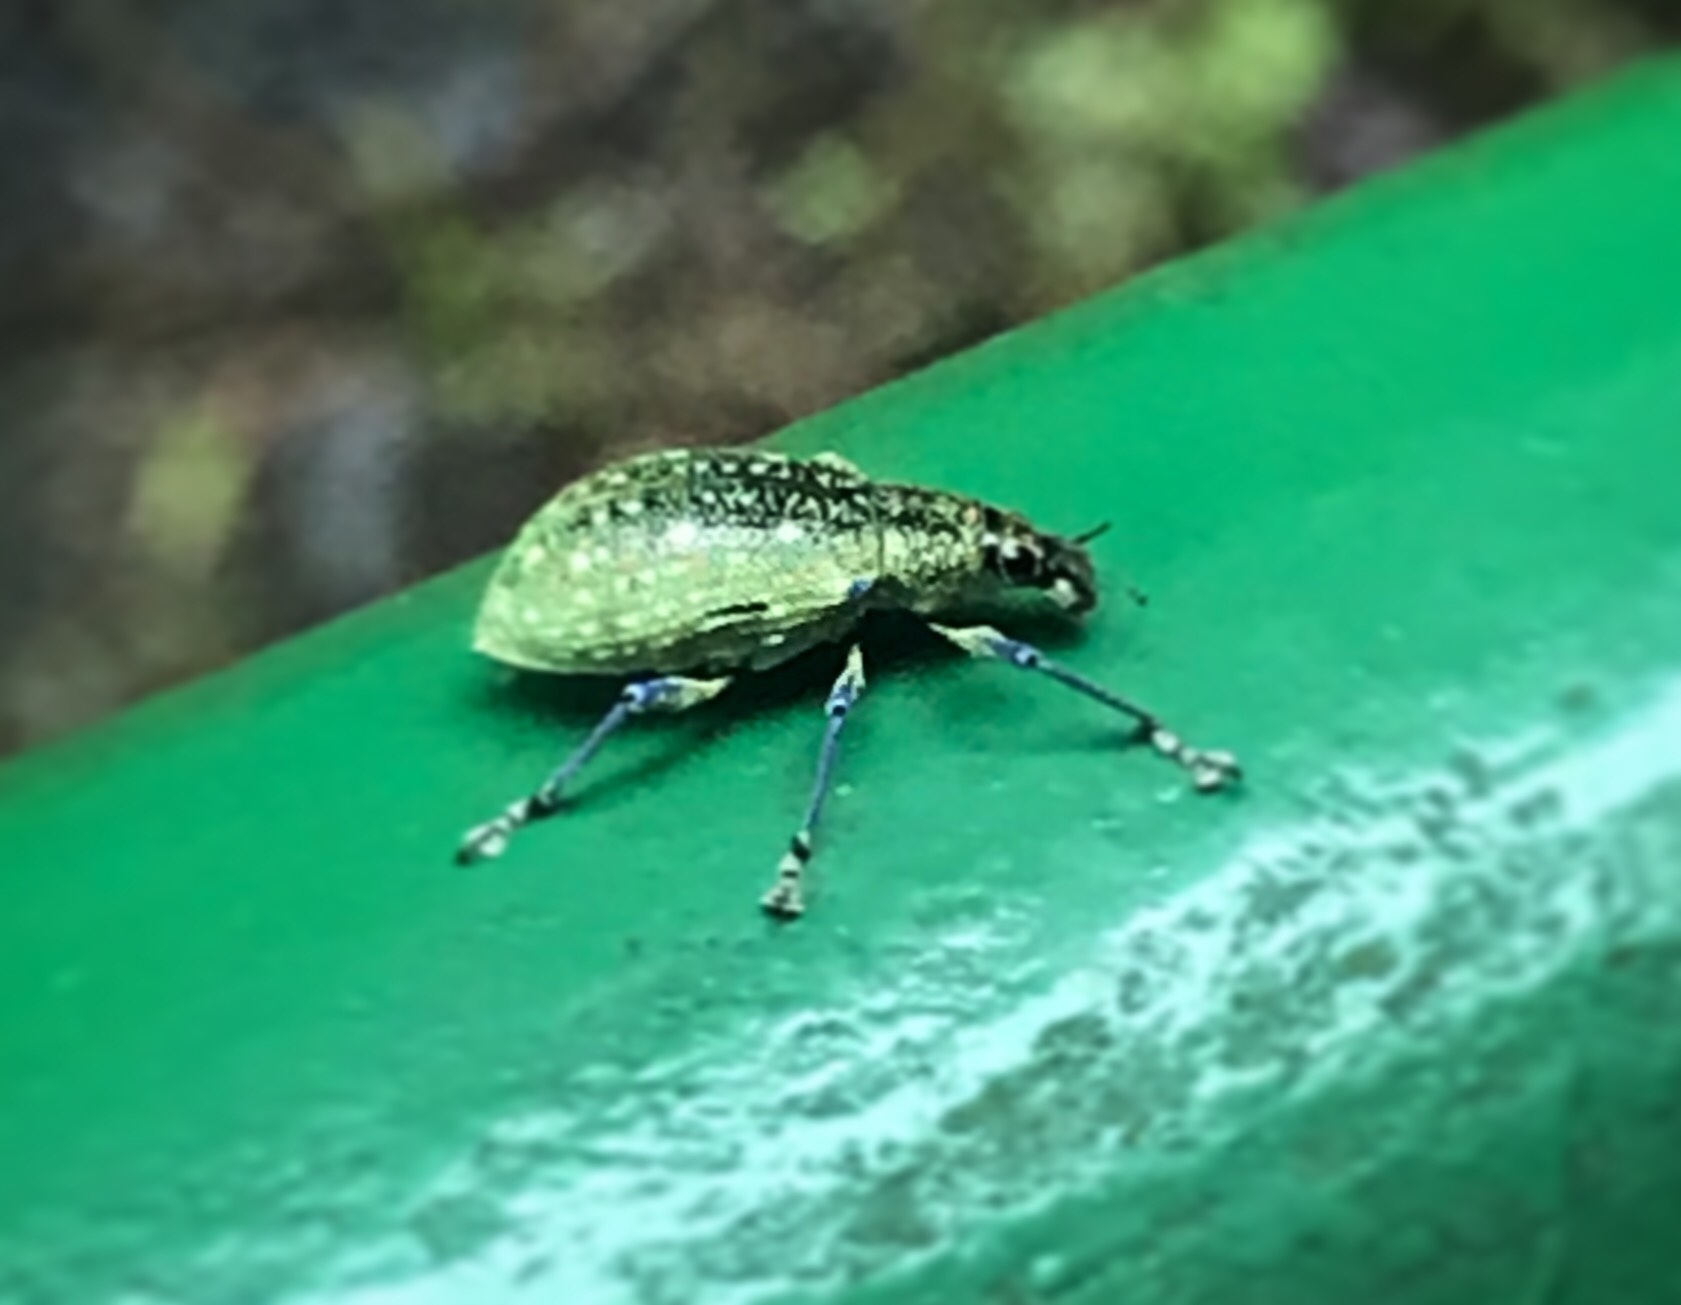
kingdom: Animalia
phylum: Arthropoda
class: Insecta
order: Coleoptera
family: Curculionidae
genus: Exophthalmus
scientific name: Exophthalmus jekelianus
